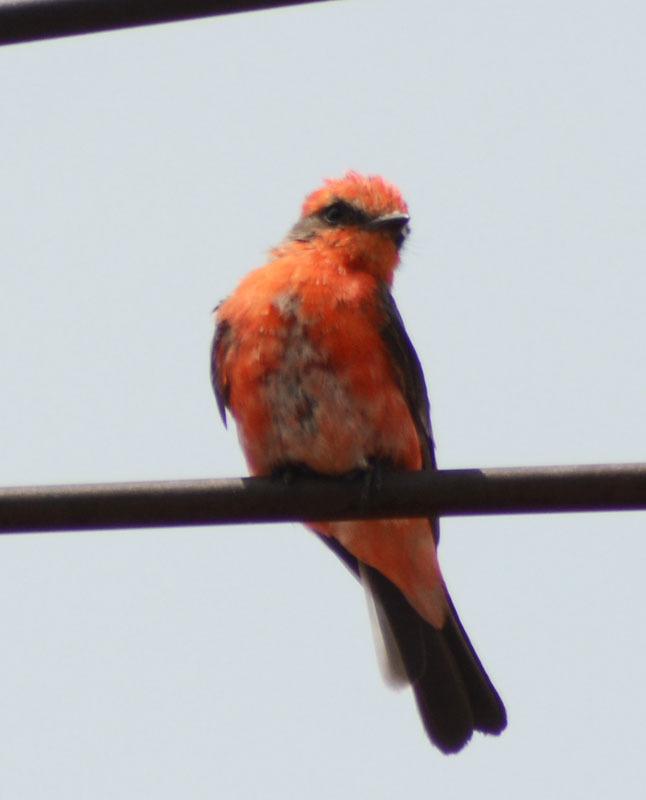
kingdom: Animalia
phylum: Chordata
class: Aves
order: Passeriformes
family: Tyrannidae
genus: Pyrocephalus
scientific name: Pyrocephalus rubinus
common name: Vermilion flycatcher
